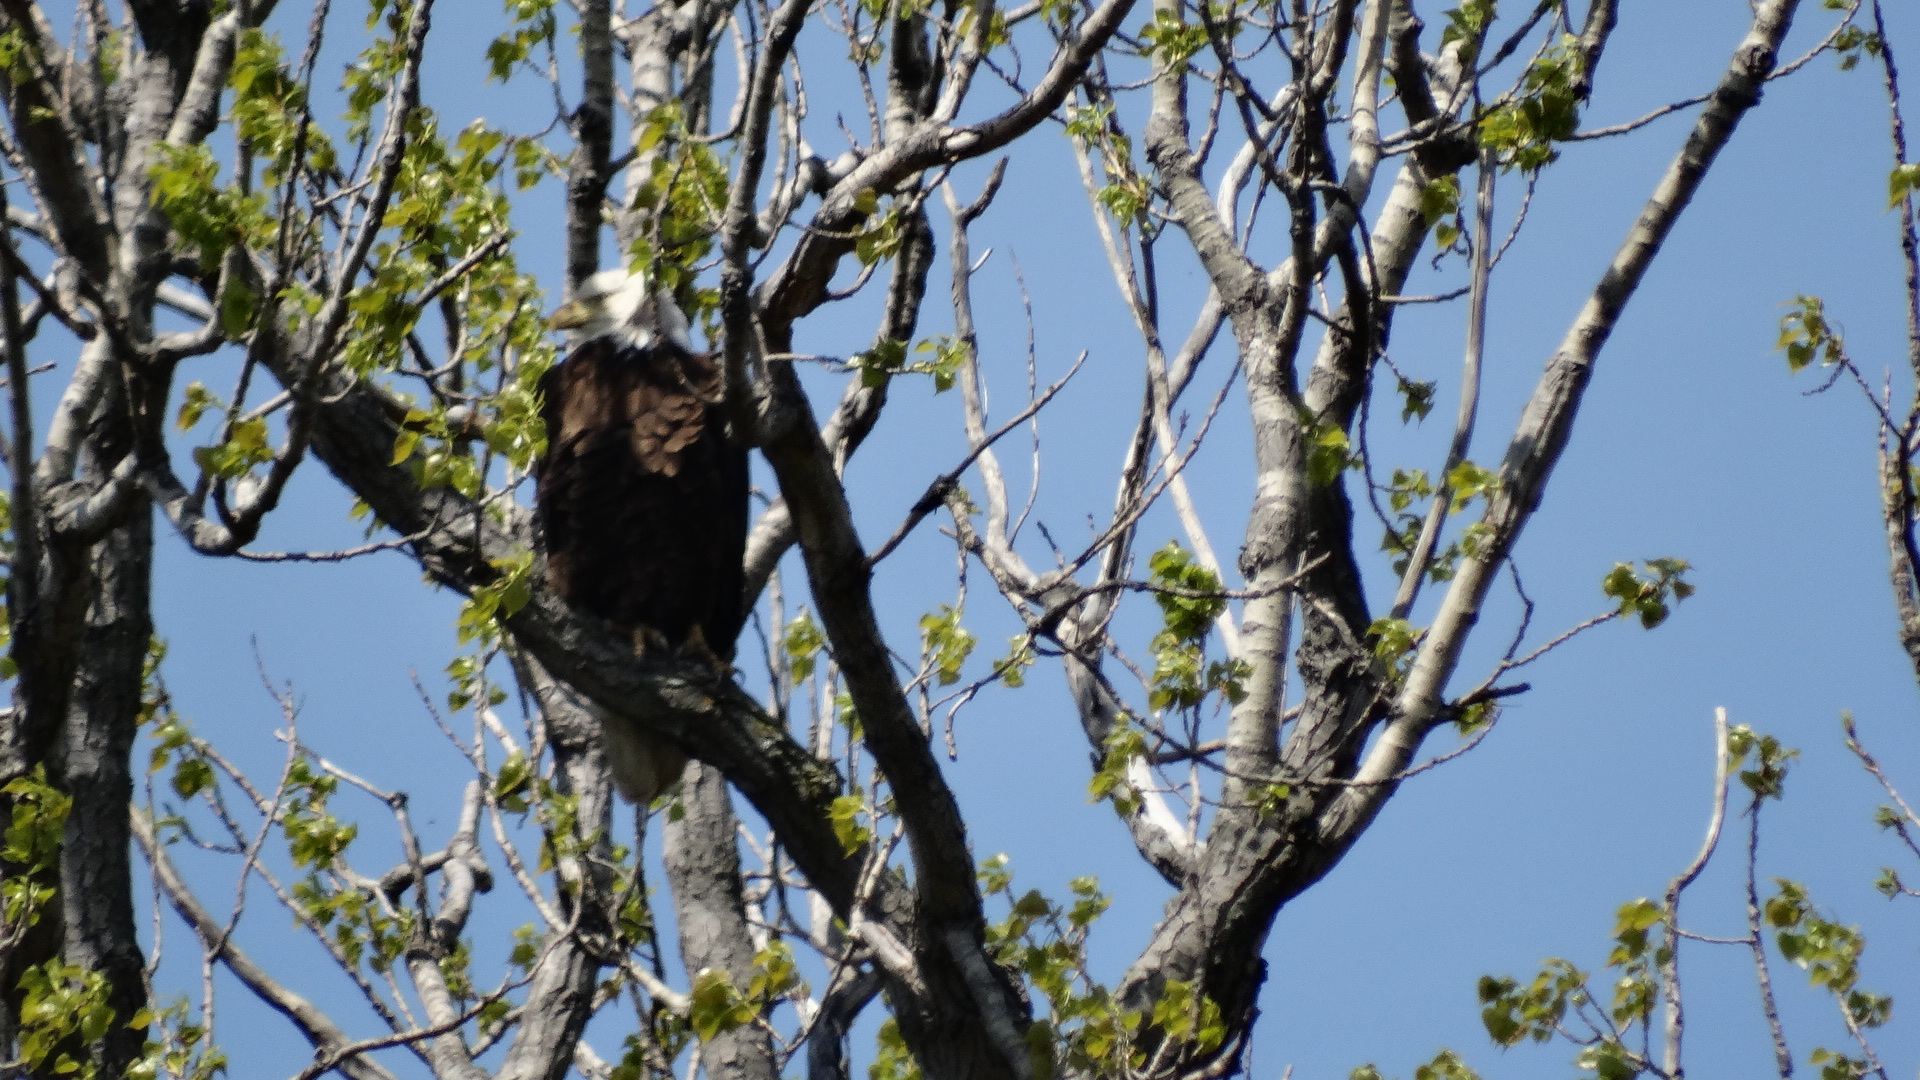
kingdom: Animalia
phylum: Chordata
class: Aves
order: Accipitriformes
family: Accipitridae
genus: Haliaeetus
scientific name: Haliaeetus leucocephalus
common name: Bald eagle
